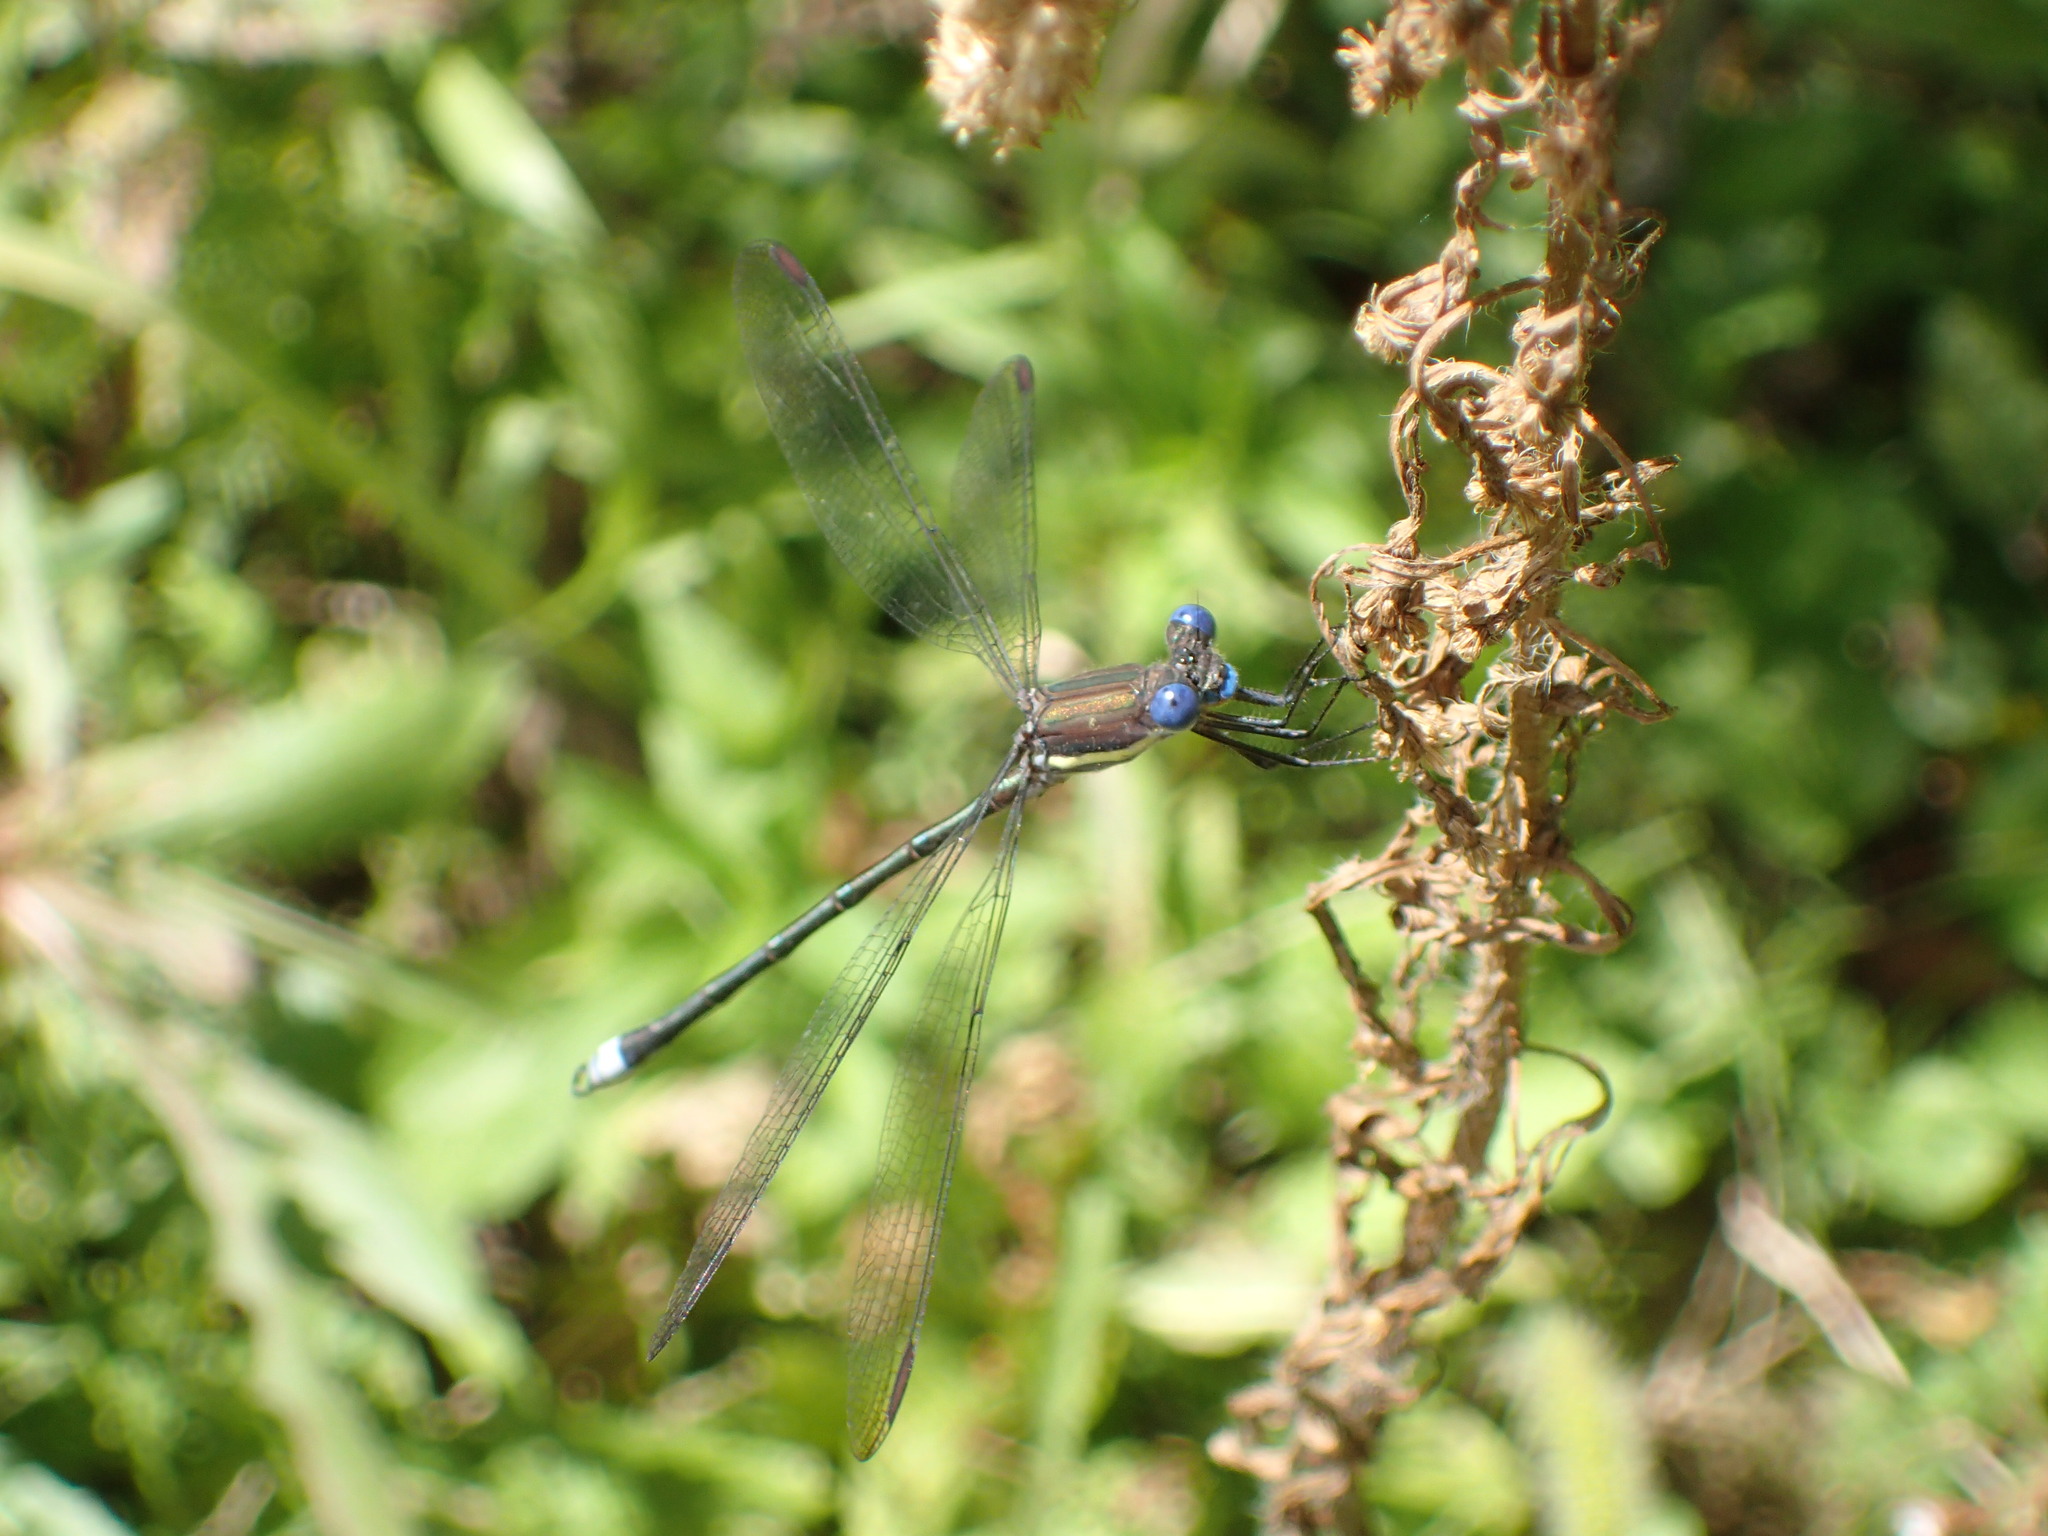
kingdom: Animalia
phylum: Arthropoda
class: Insecta
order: Odonata
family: Lestidae
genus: Archilestes
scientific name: Archilestes grandis
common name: Great spreadwing
